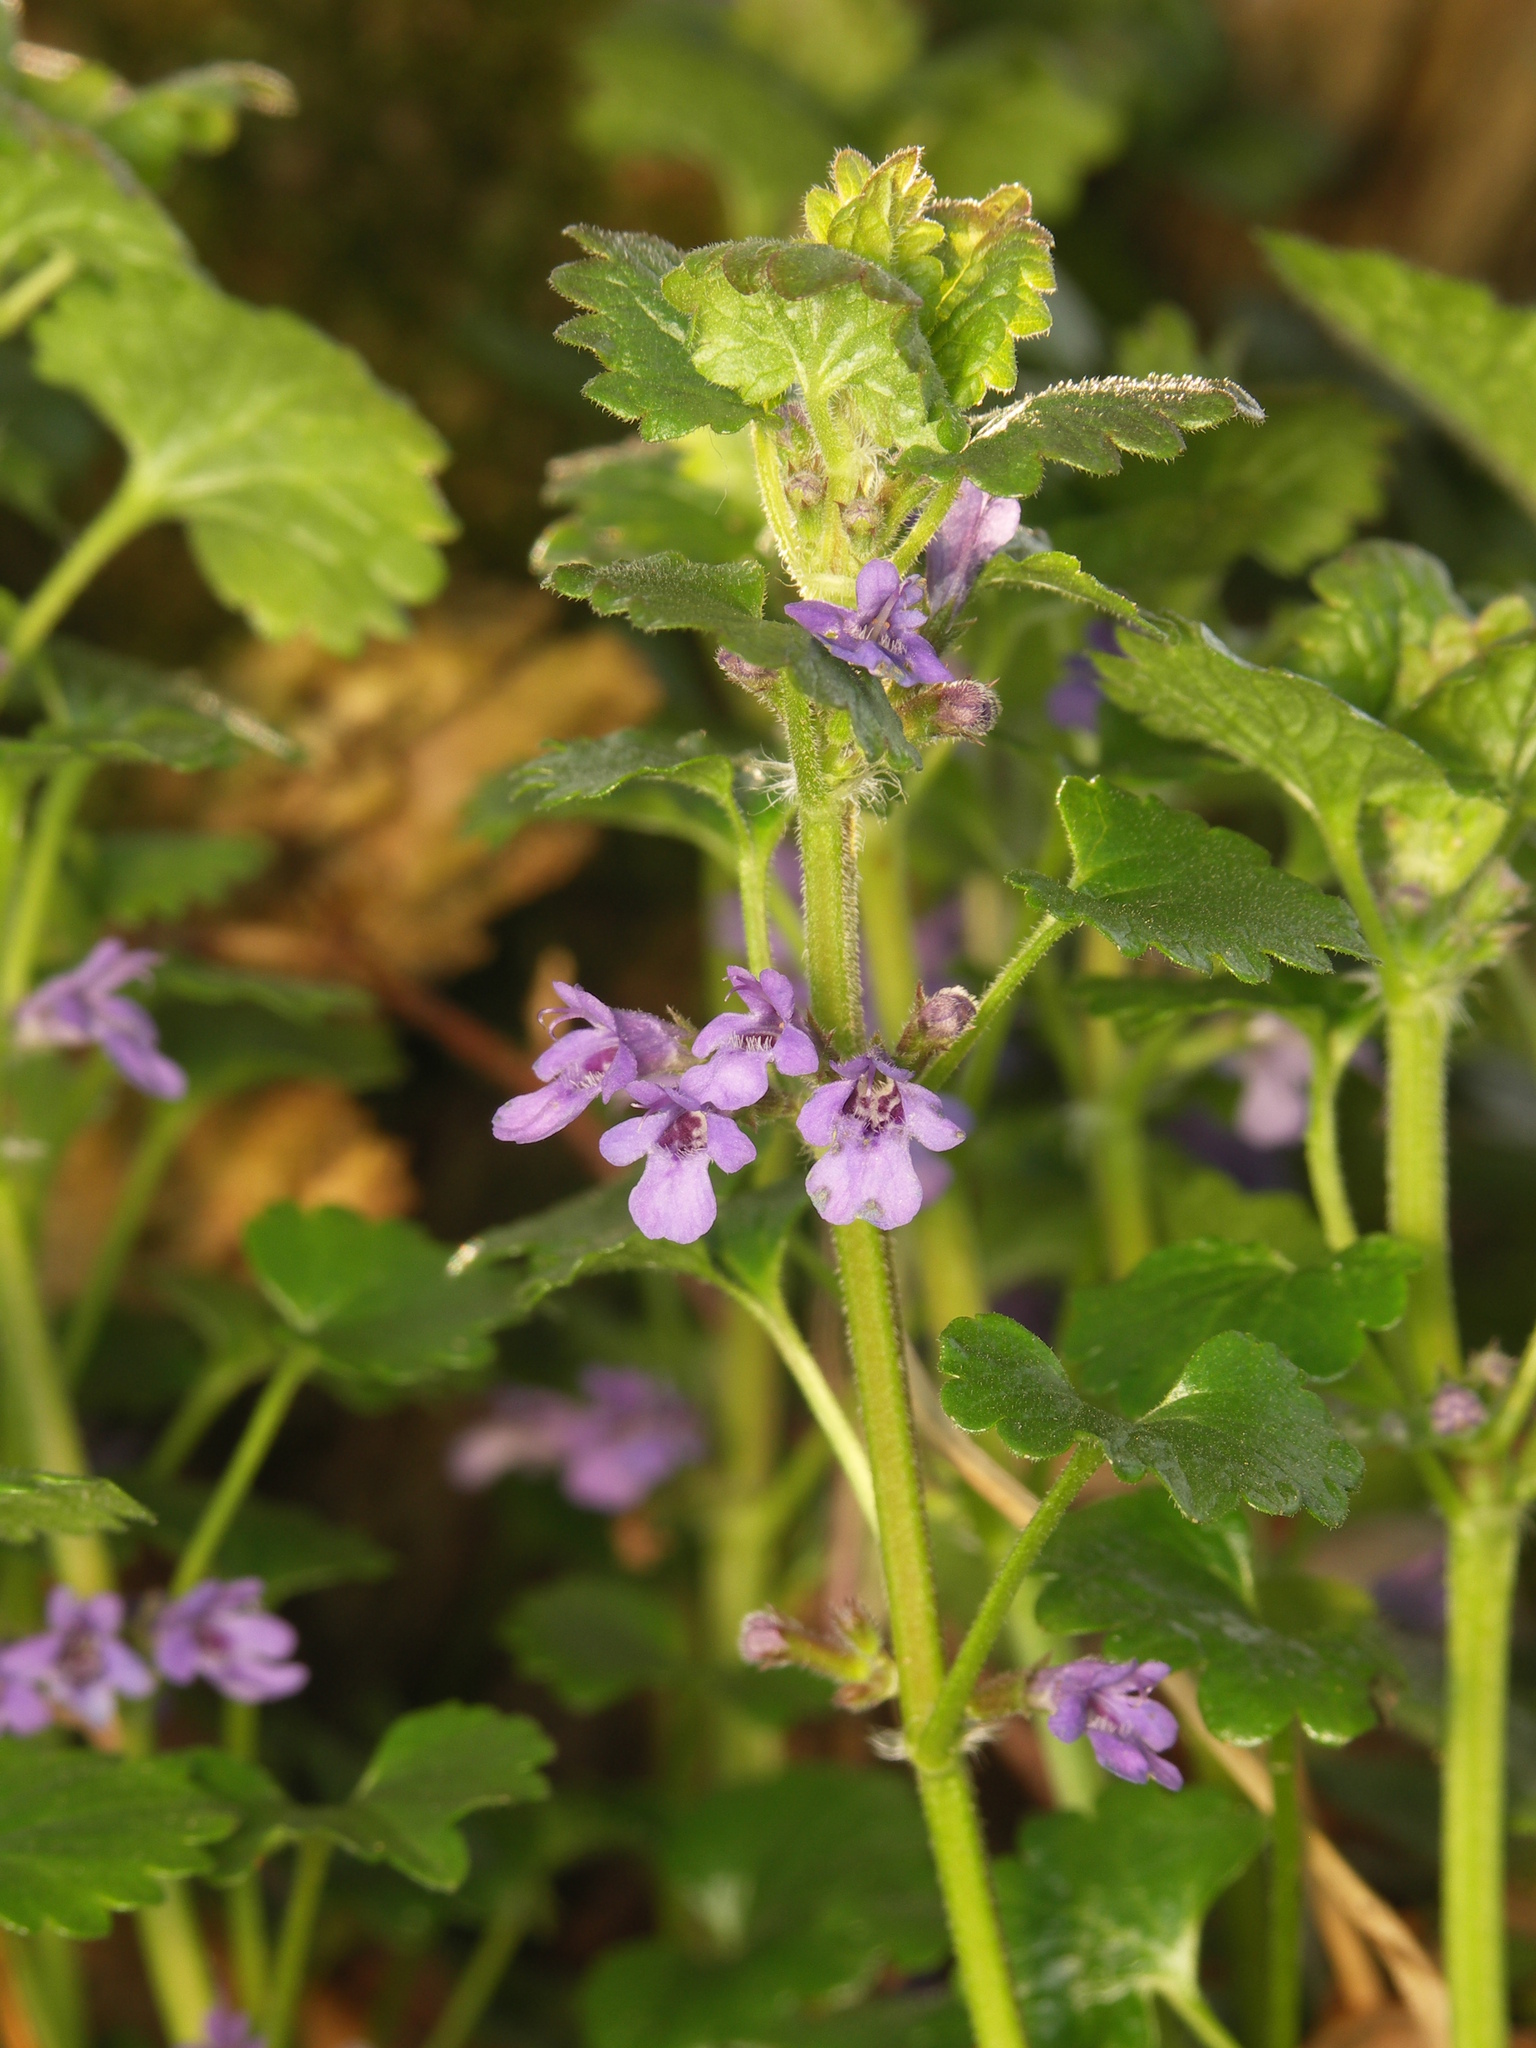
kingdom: Plantae
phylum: Tracheophyta
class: Magnoliopsida
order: Lamiales
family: Lamiaceae
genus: Glechoma
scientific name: Glechoma hederacea
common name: Ground ivy
